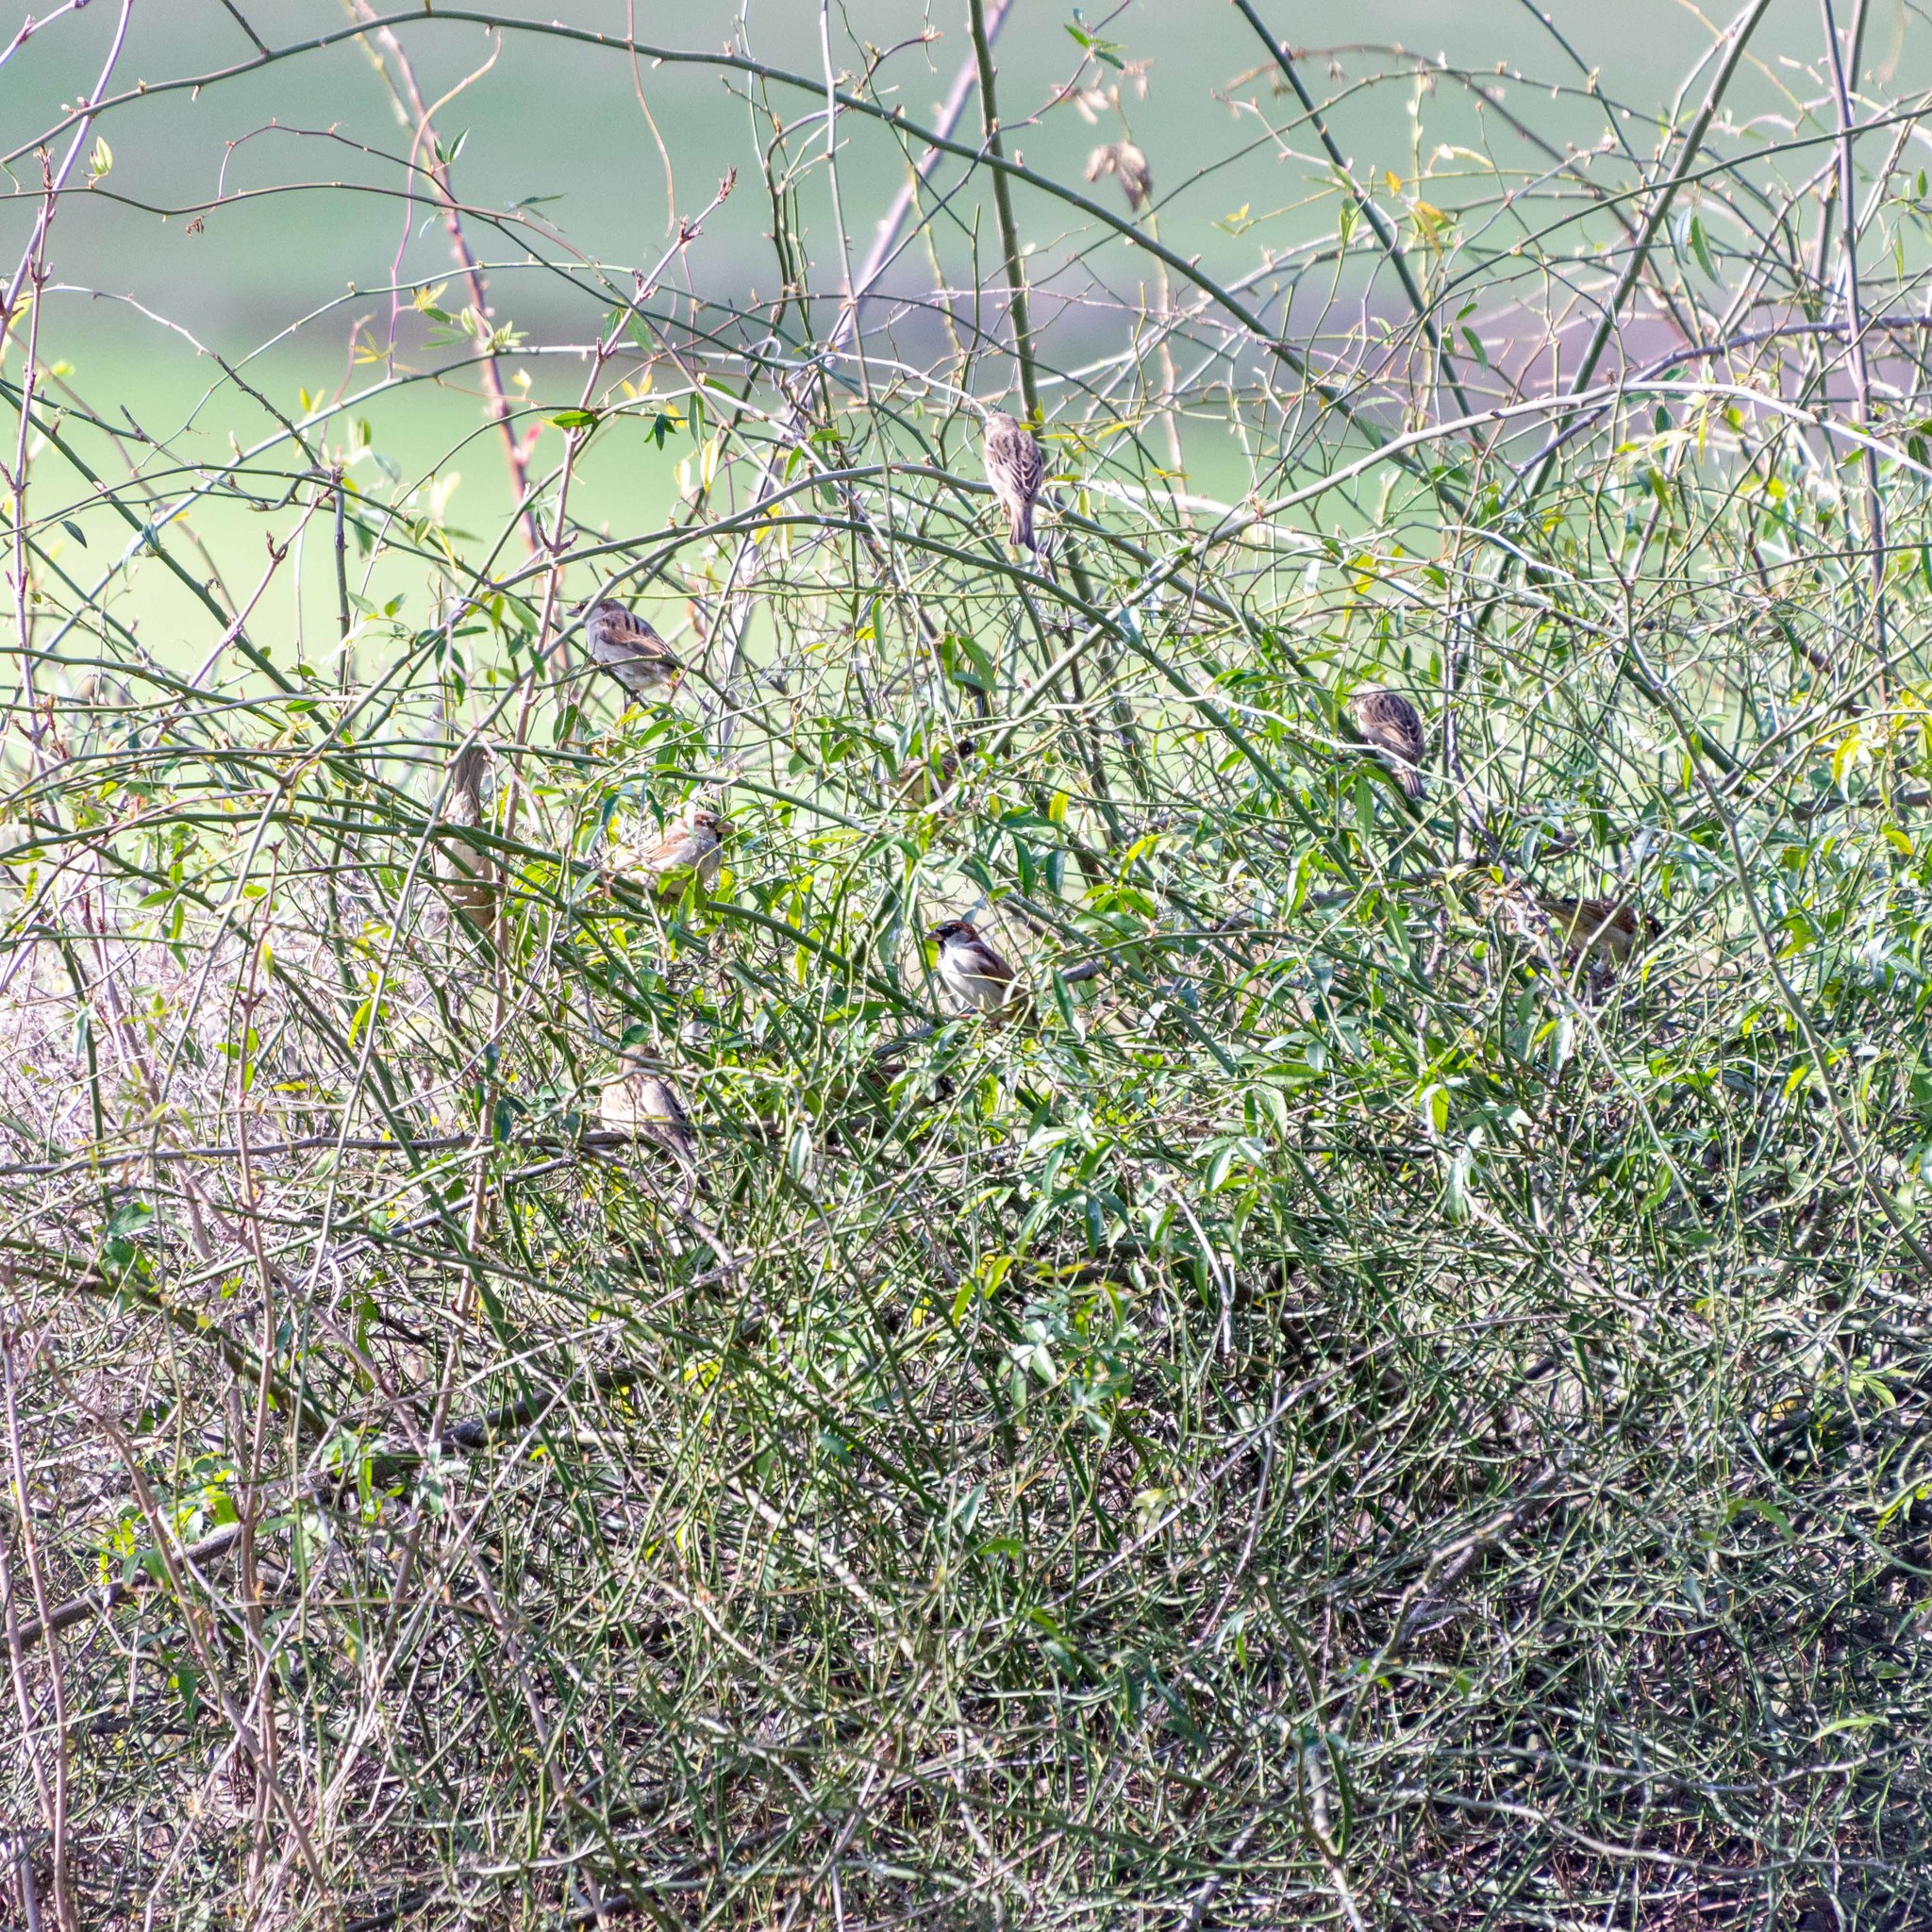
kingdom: Animalia
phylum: Chordata
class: Aves
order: Passeriformes
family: Passeridae
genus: Passer
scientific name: Passer domesticus
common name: House sparrow
